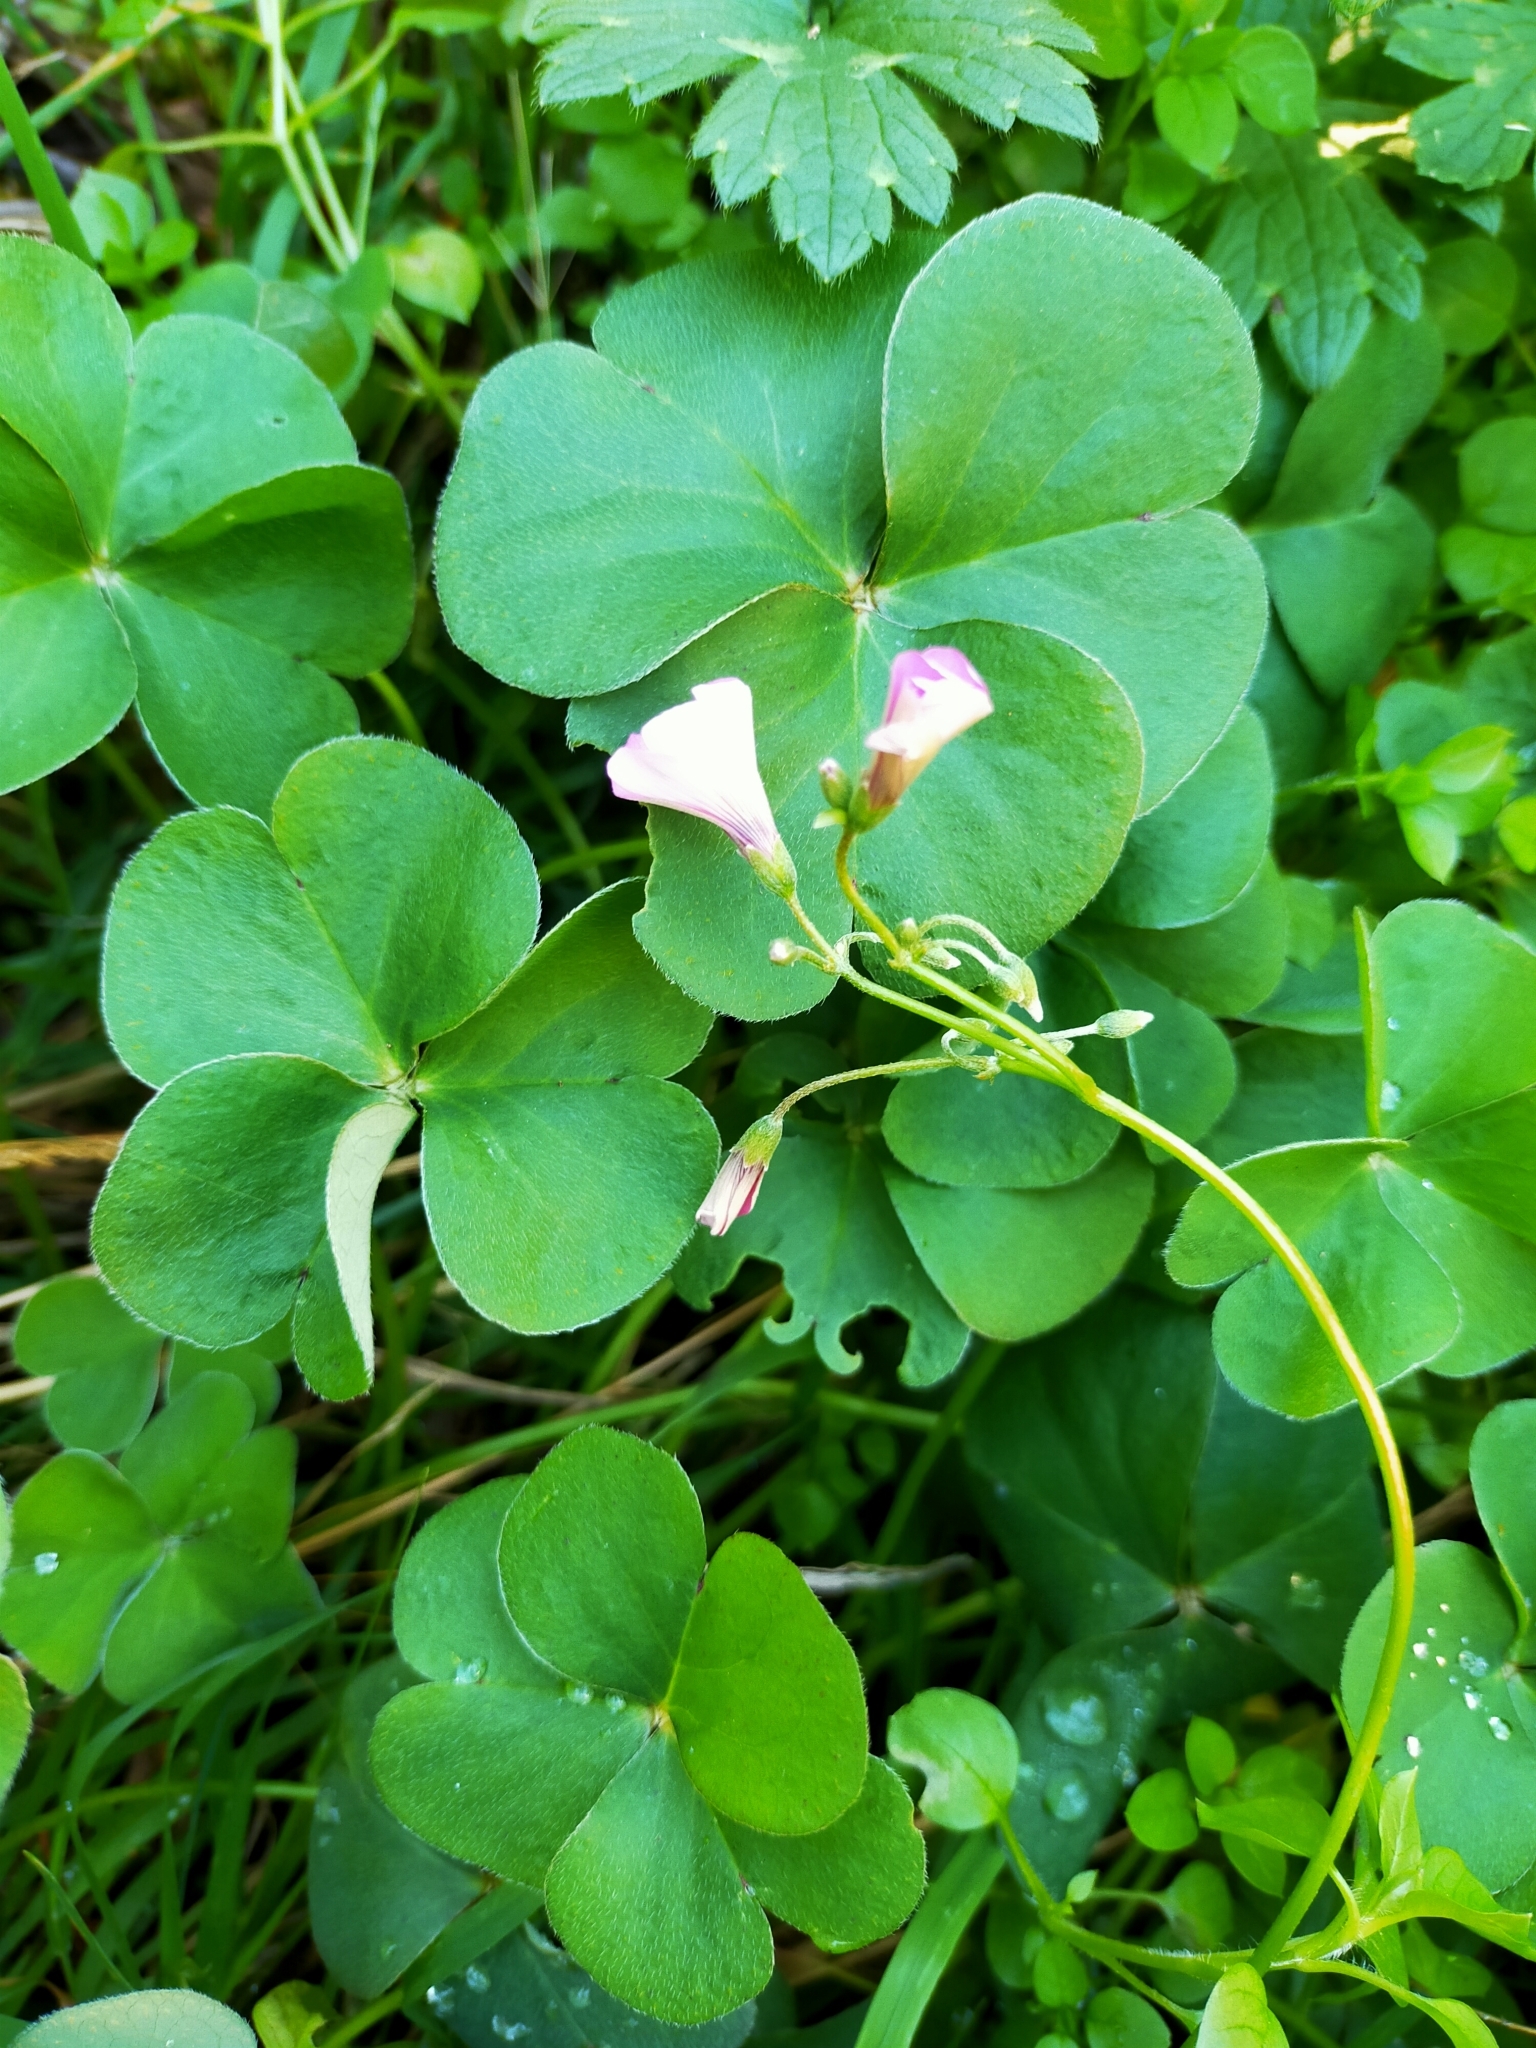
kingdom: Plantae
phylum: Tracheophyta
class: Magnoliopsida
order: Oxalidales
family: Oxalidaceae
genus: Oxalis
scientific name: Oxalis articulata
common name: Pink-sorrel
